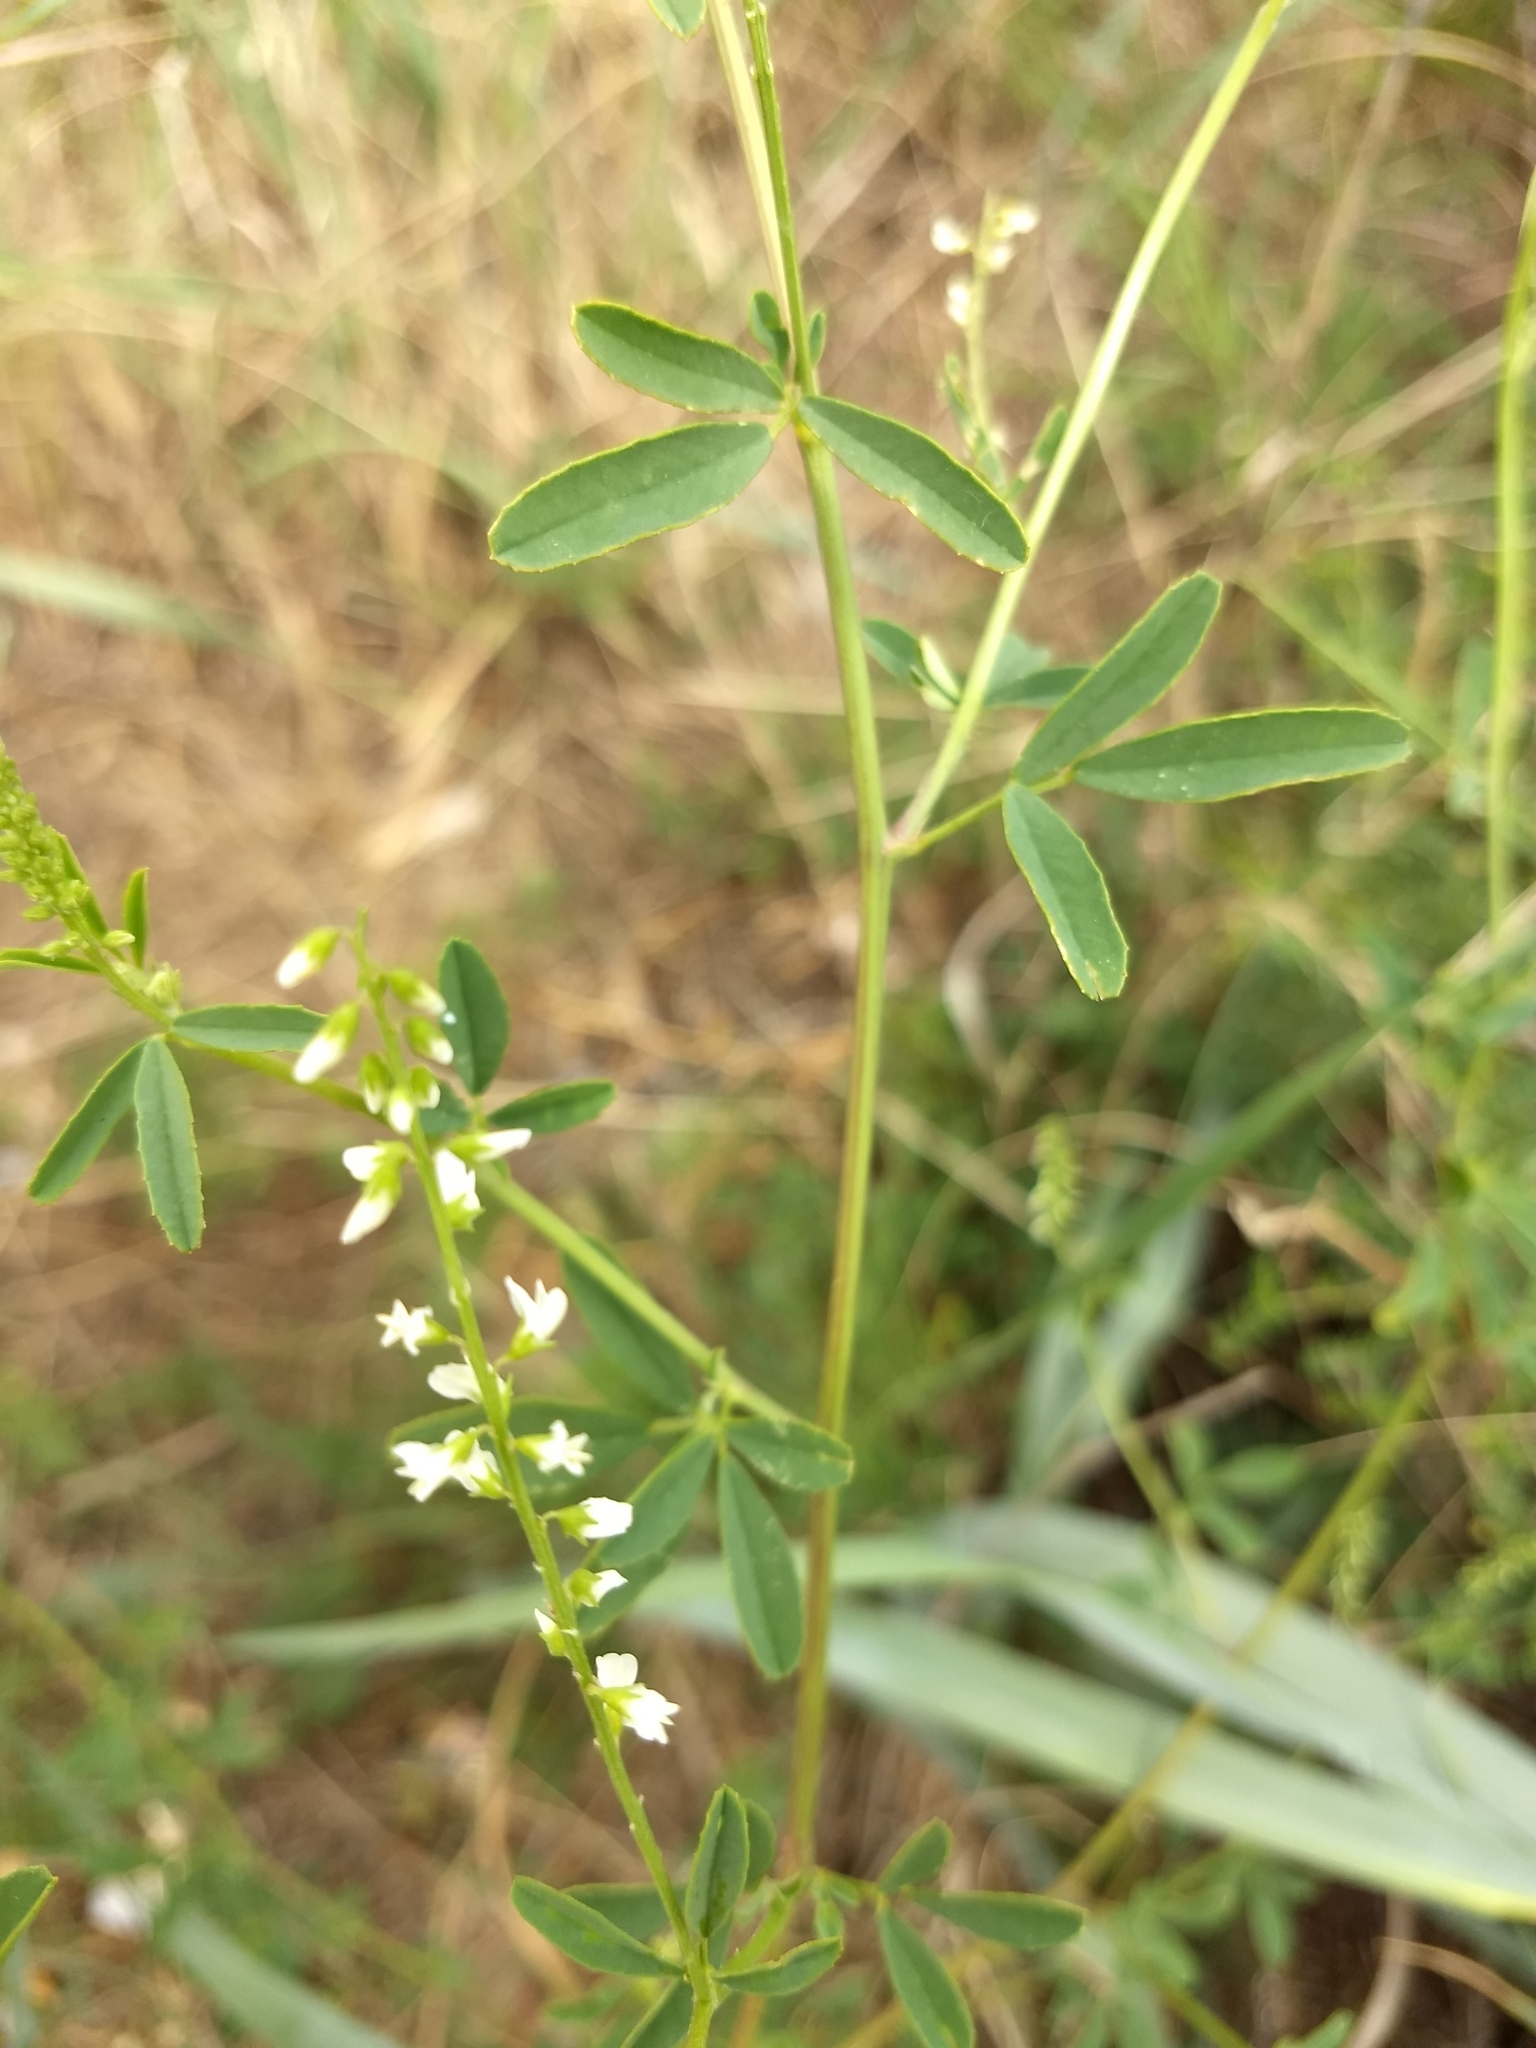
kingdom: Plantae
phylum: Tracheophyta
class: Magnoliopsida
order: Fabales
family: Fabaceae
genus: Melilotus
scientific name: Melilotus albus
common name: White melilot
